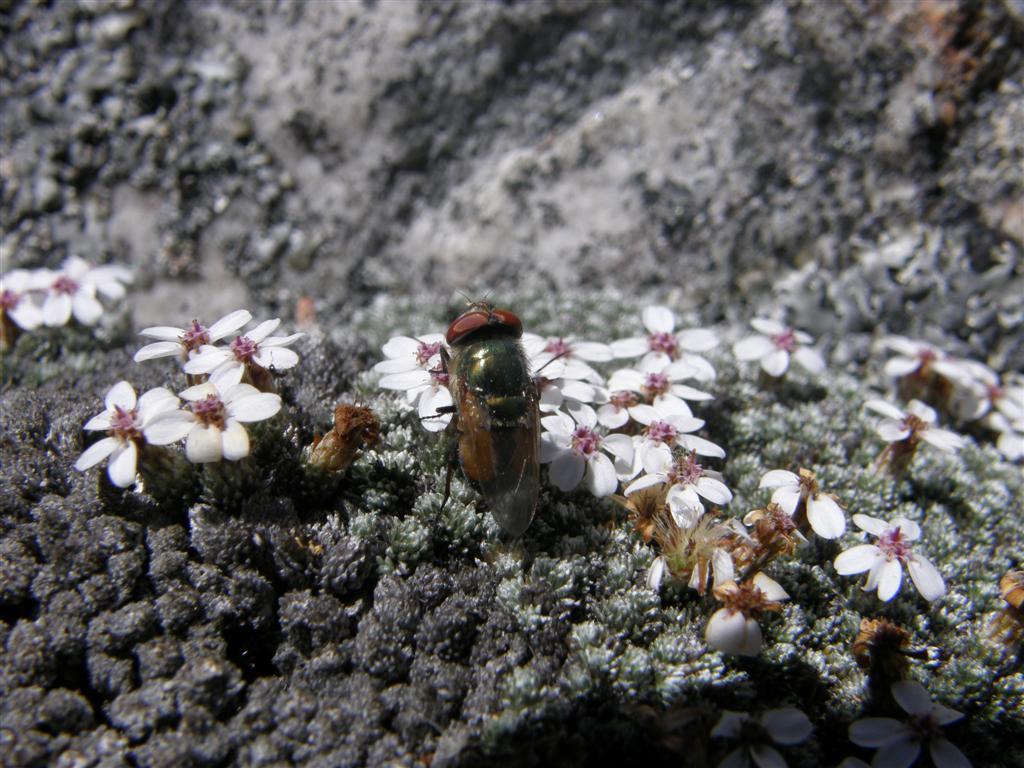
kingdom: Plantae
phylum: Tracheophyta
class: Magnoliopsida
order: Asterales
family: Asteraceae
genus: Muscosomorphe
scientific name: Muscosomorphe aretioides
